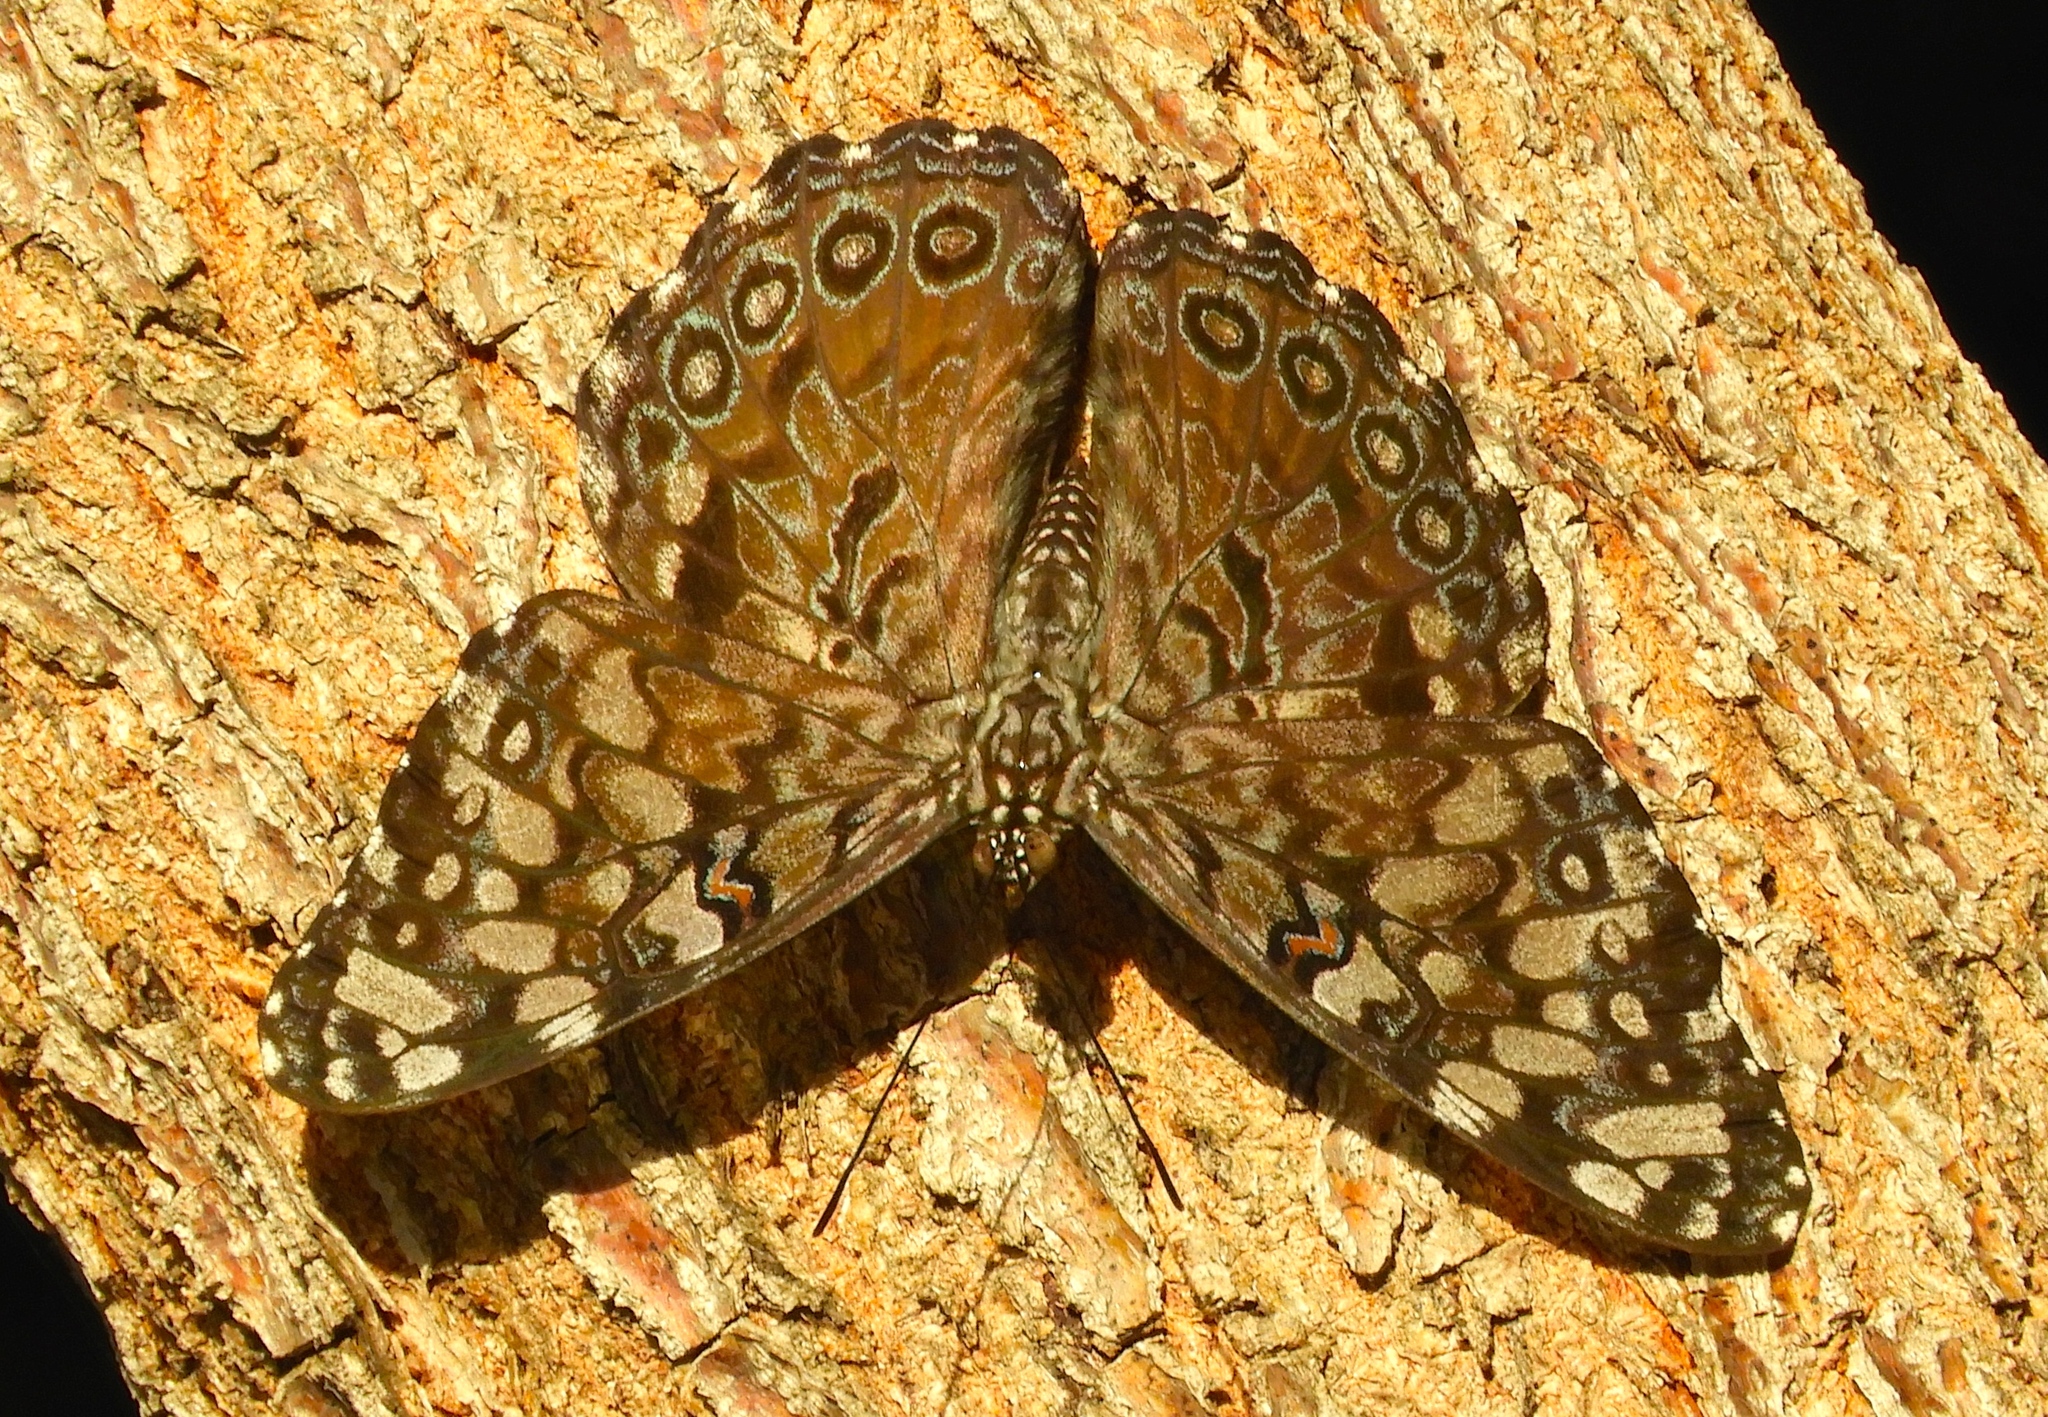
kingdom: Animalia
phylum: Arthropoda
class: Insecta
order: Lepidoptera
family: Nymphalidae
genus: Hamadryas
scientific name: Hamadryas guatemalena
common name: Guatemalan cracker
